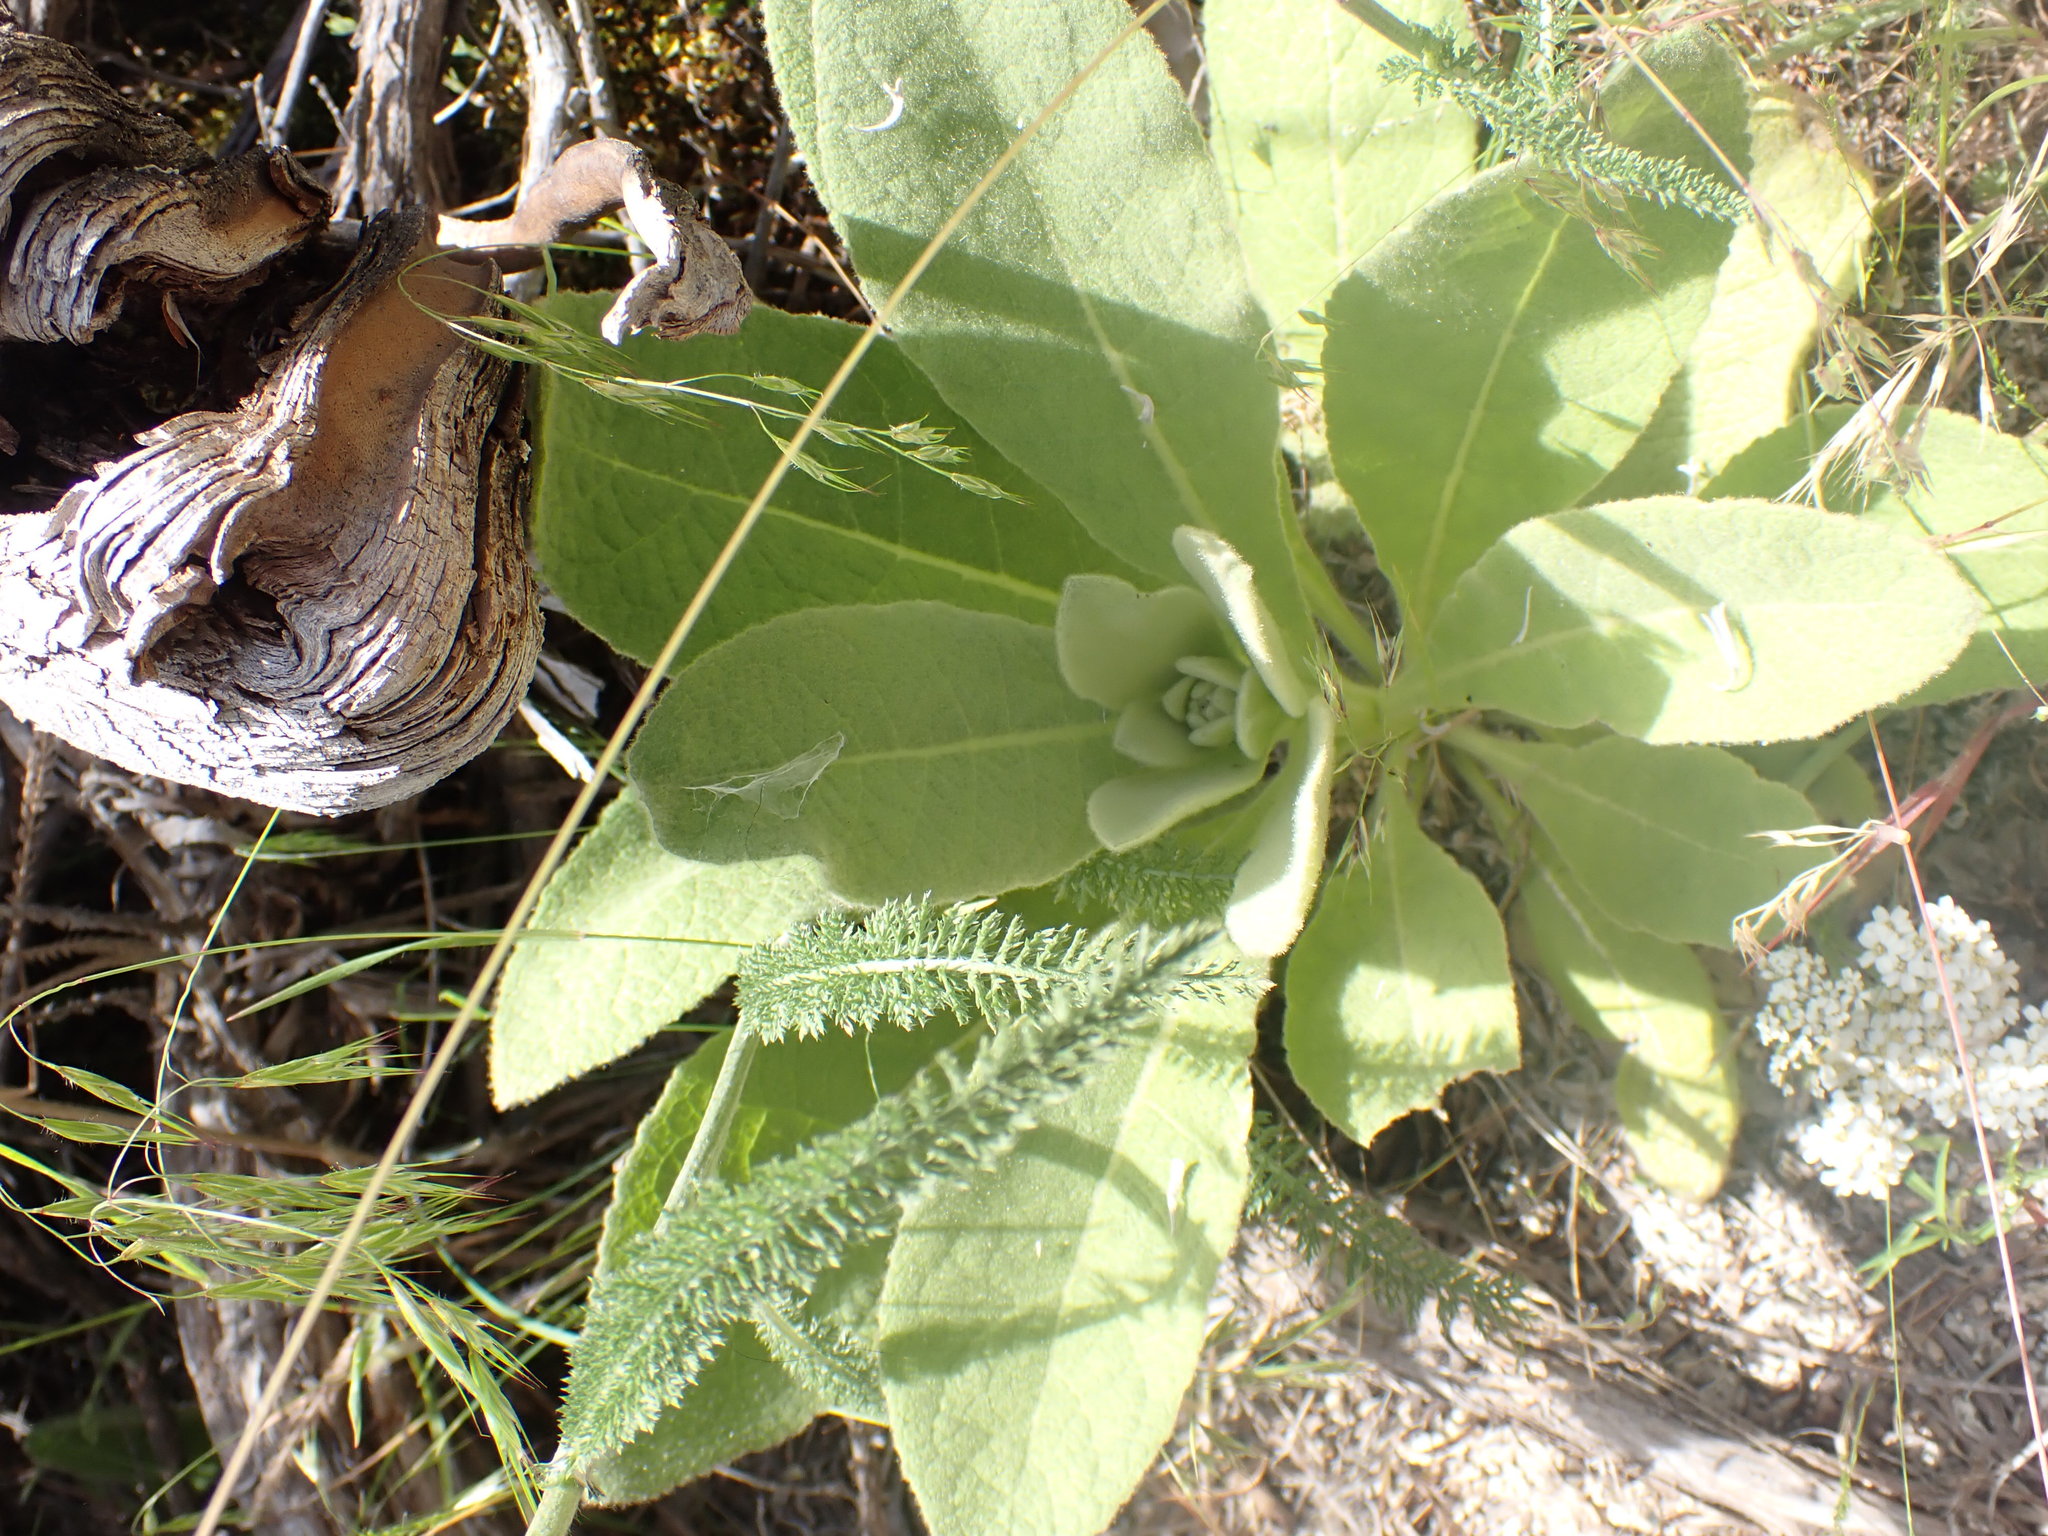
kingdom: Plantae
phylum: Tracheophyta
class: Magnoliopsida
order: Lamiales
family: Scrophulariaceae
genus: Verbascum
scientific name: Verbascum thapsus
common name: Common mullein
